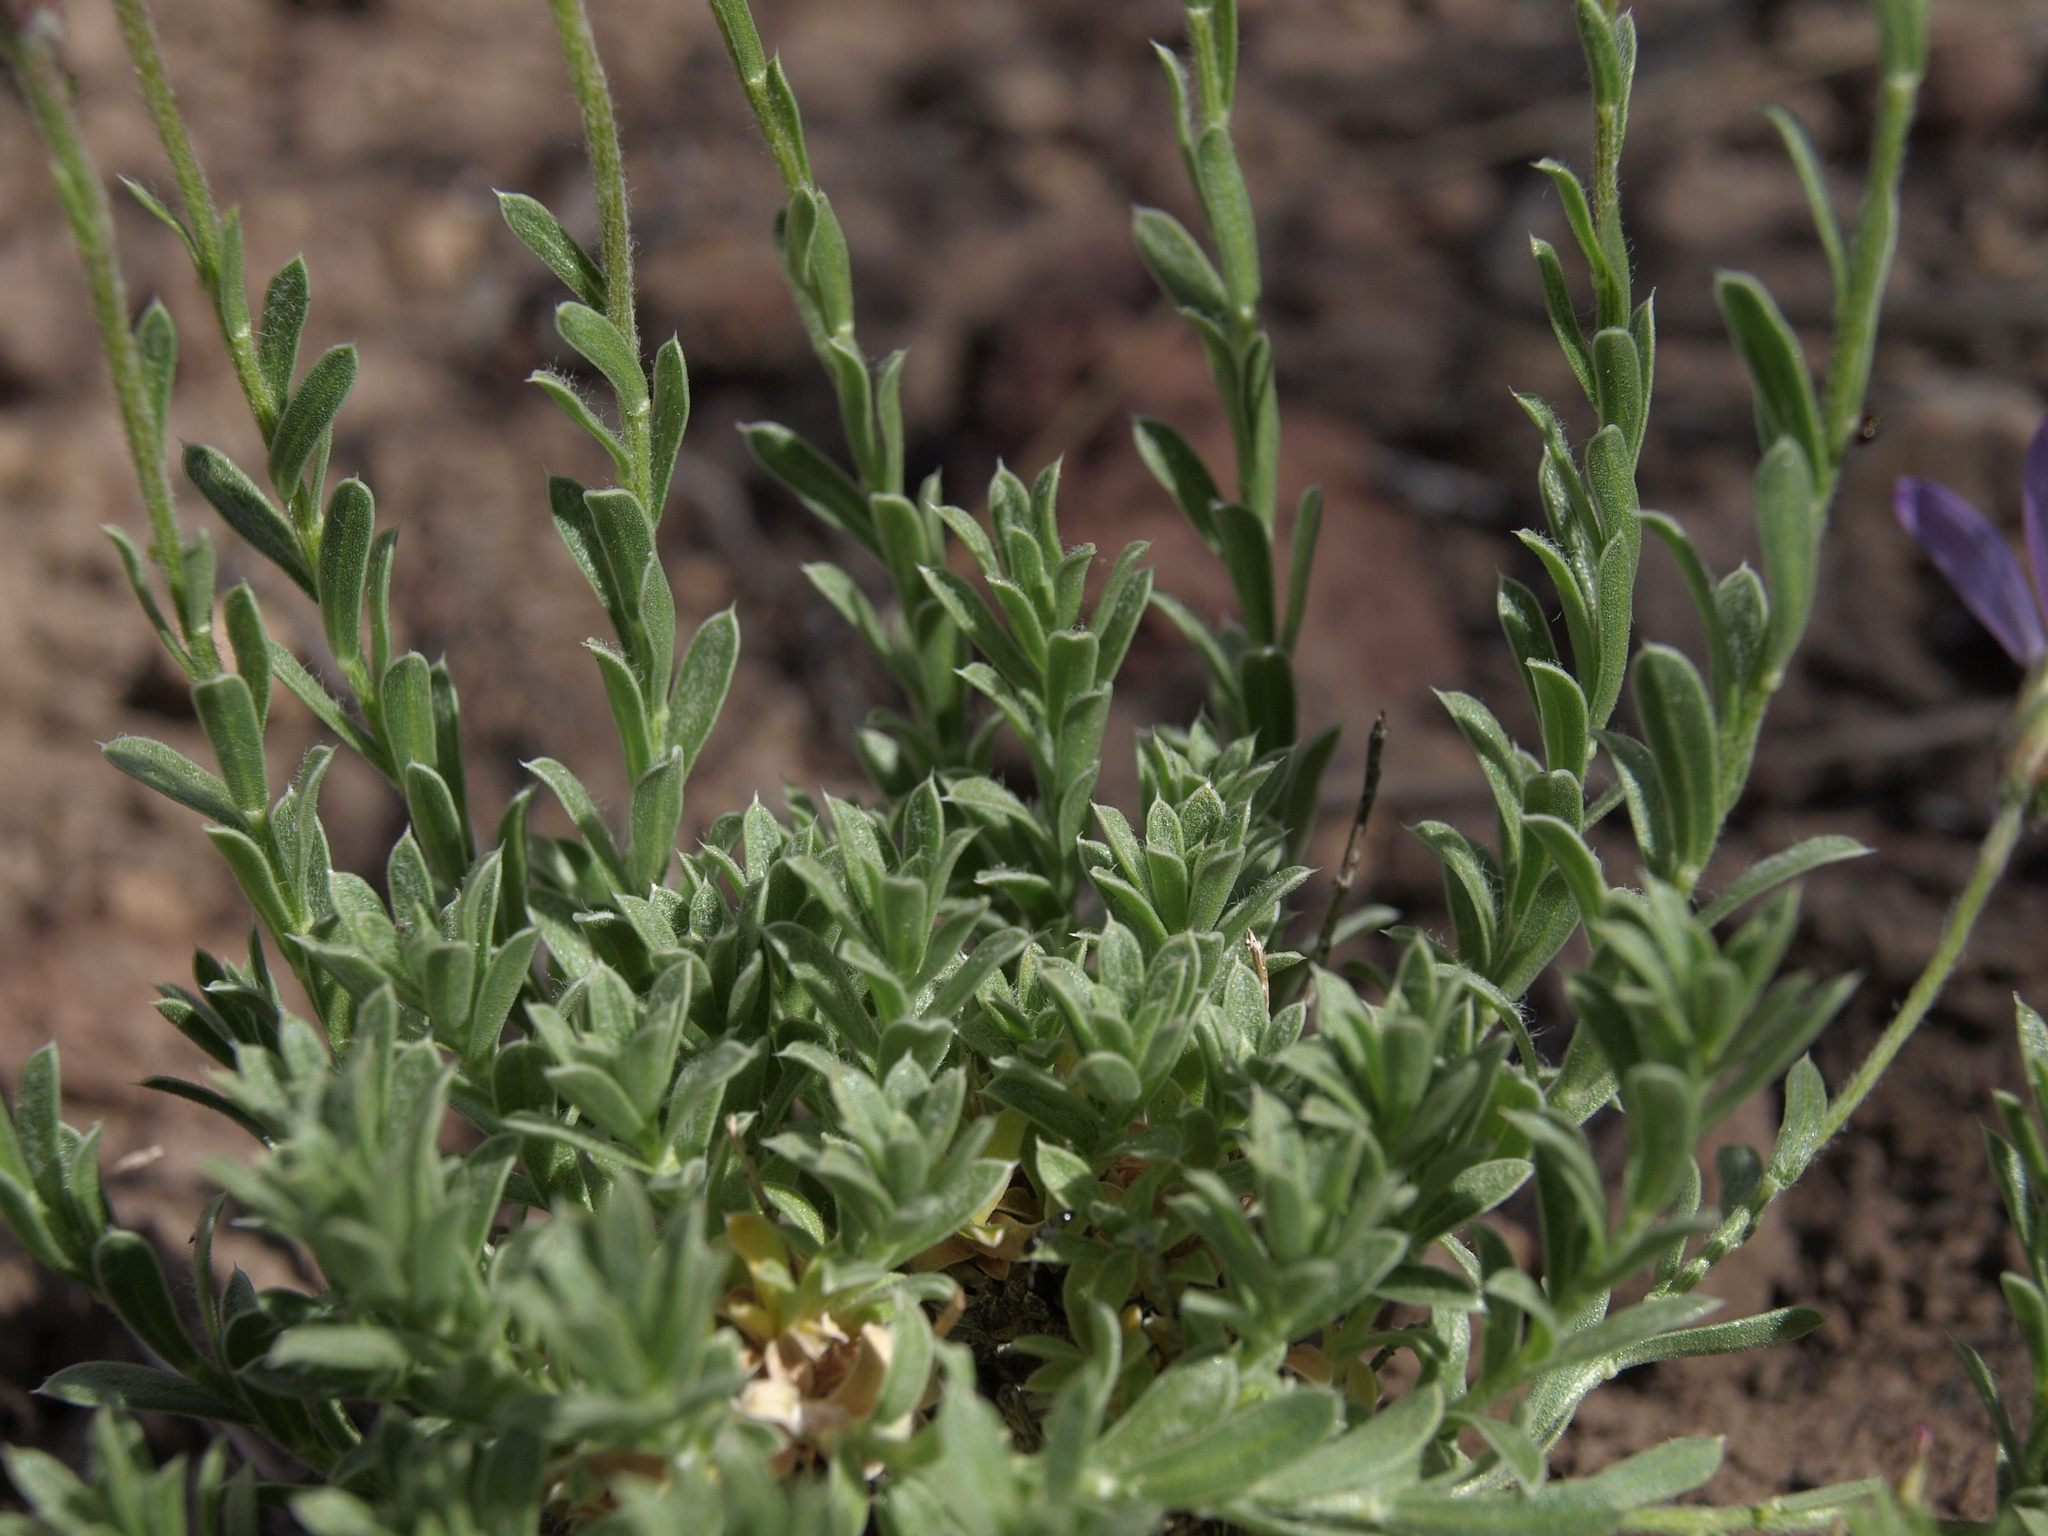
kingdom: Plantae
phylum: Tracheophyta
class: Magnoliopsida
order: Asterales
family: Asteraceae
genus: Ionactis
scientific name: Ionactis alpina
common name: Crag aster
